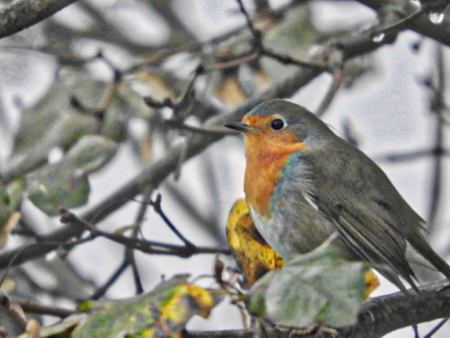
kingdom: Animalia
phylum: Chordata
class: Aves
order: Passeriformes
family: Muscicapidae
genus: Erithacus
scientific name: Erithacus rubecula
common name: European robin
